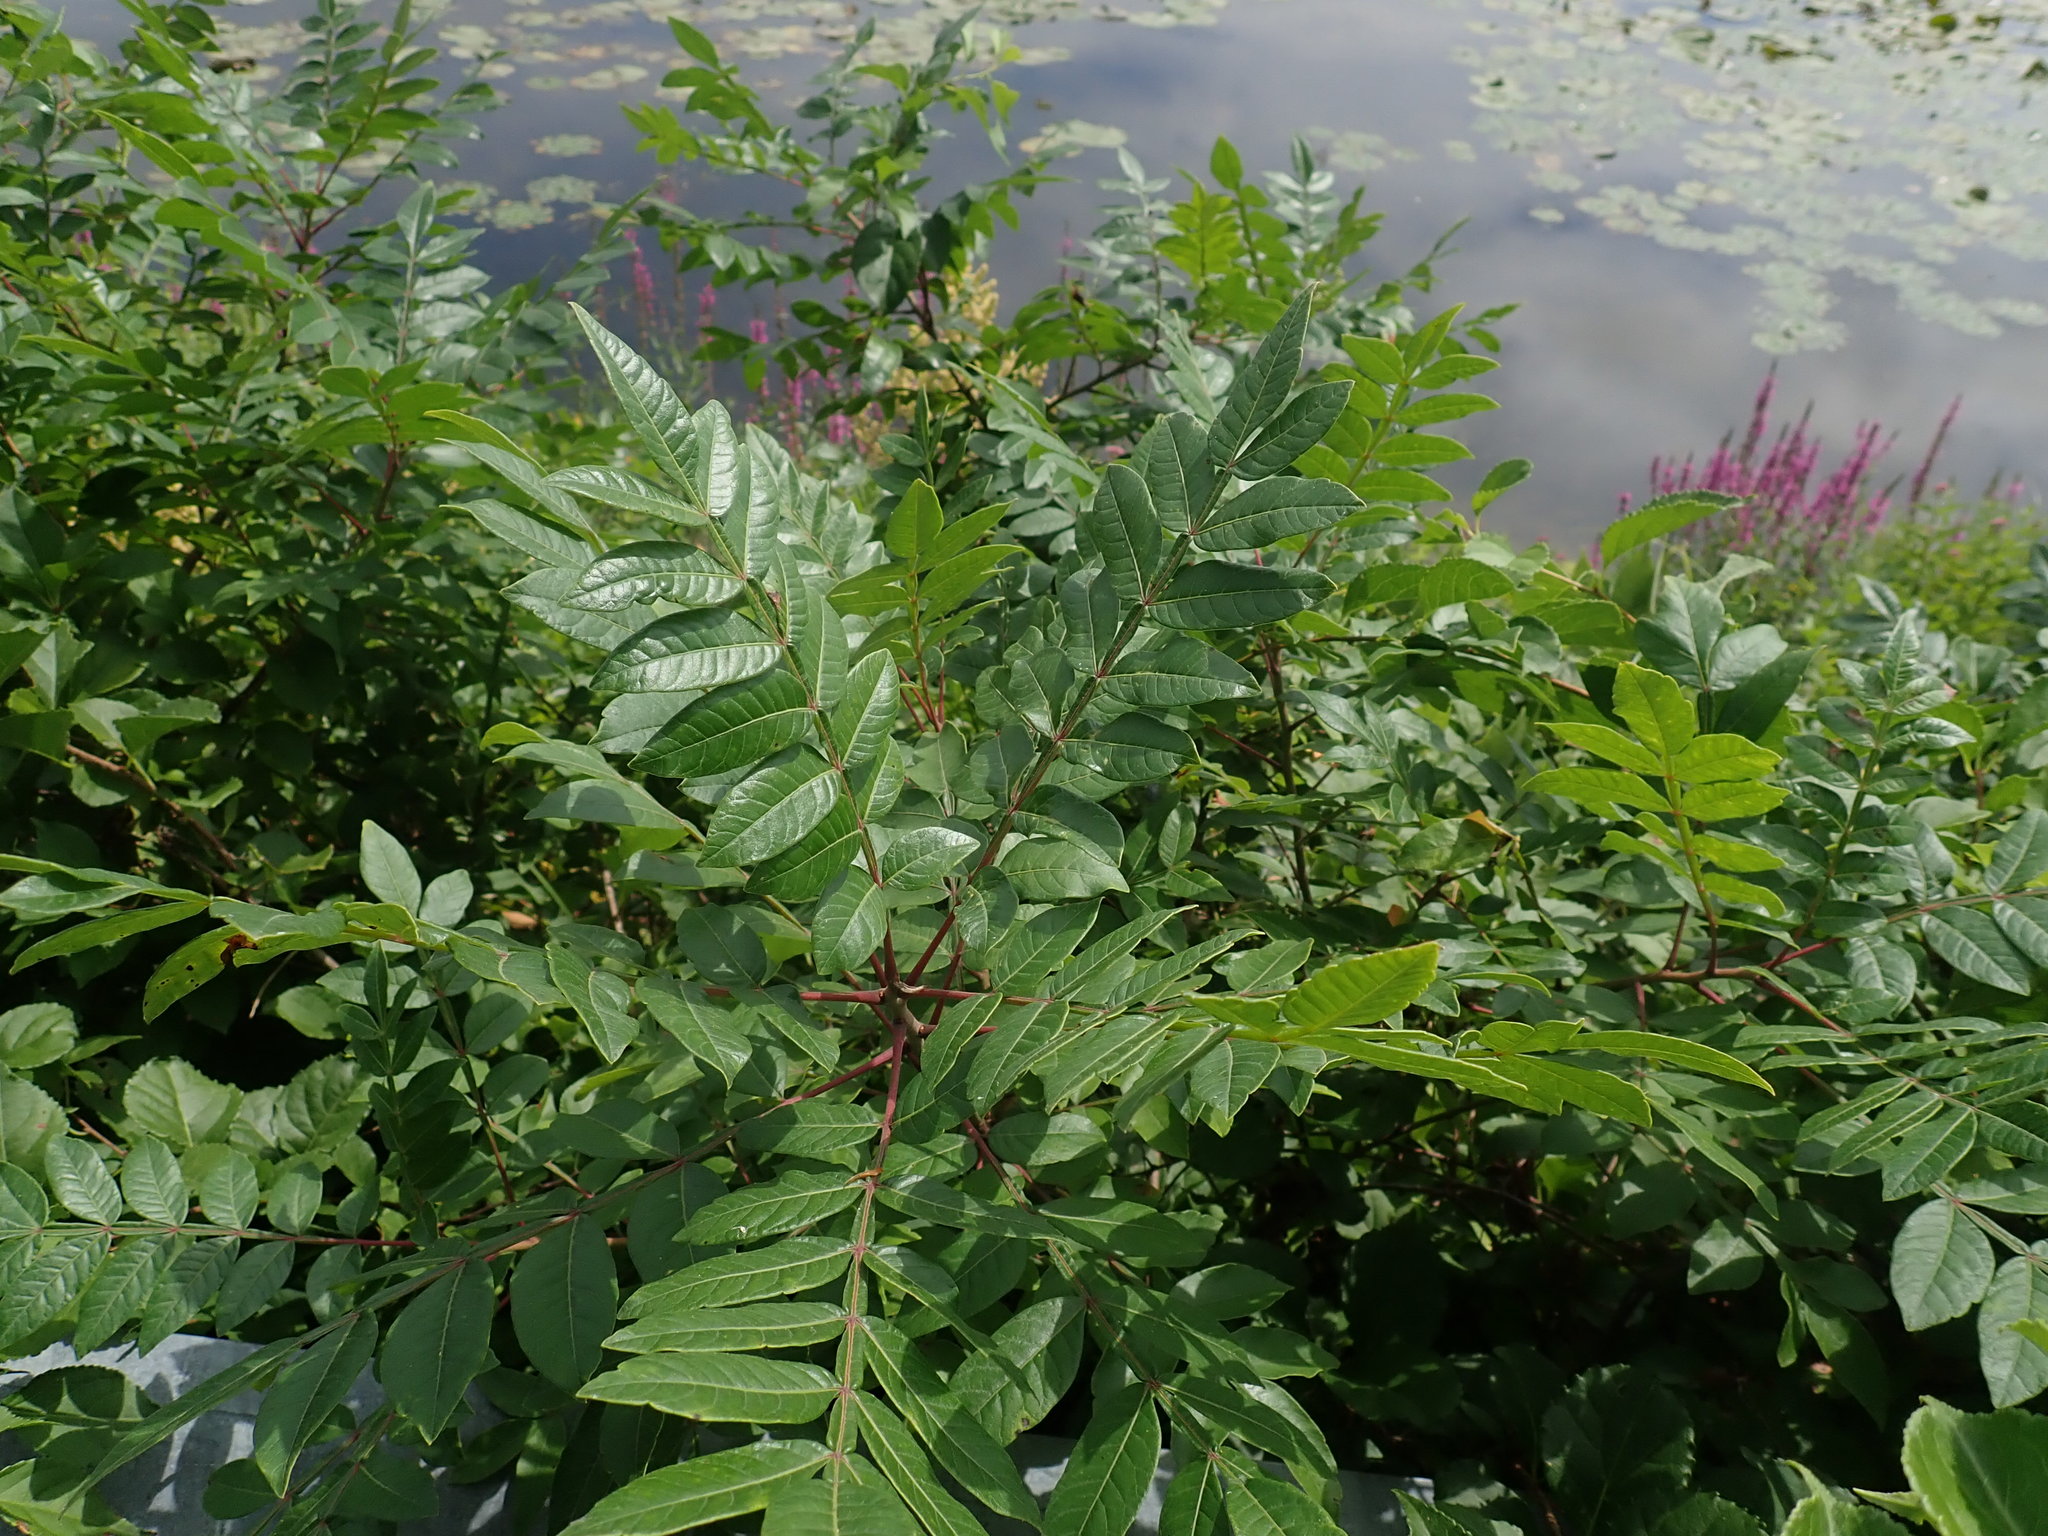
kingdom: Plantae
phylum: Tracheophyta
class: Magnoliopsida
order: Sapindales
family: Anacardiaceae
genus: Rhus
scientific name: Rhus copallina
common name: Shining sumac
